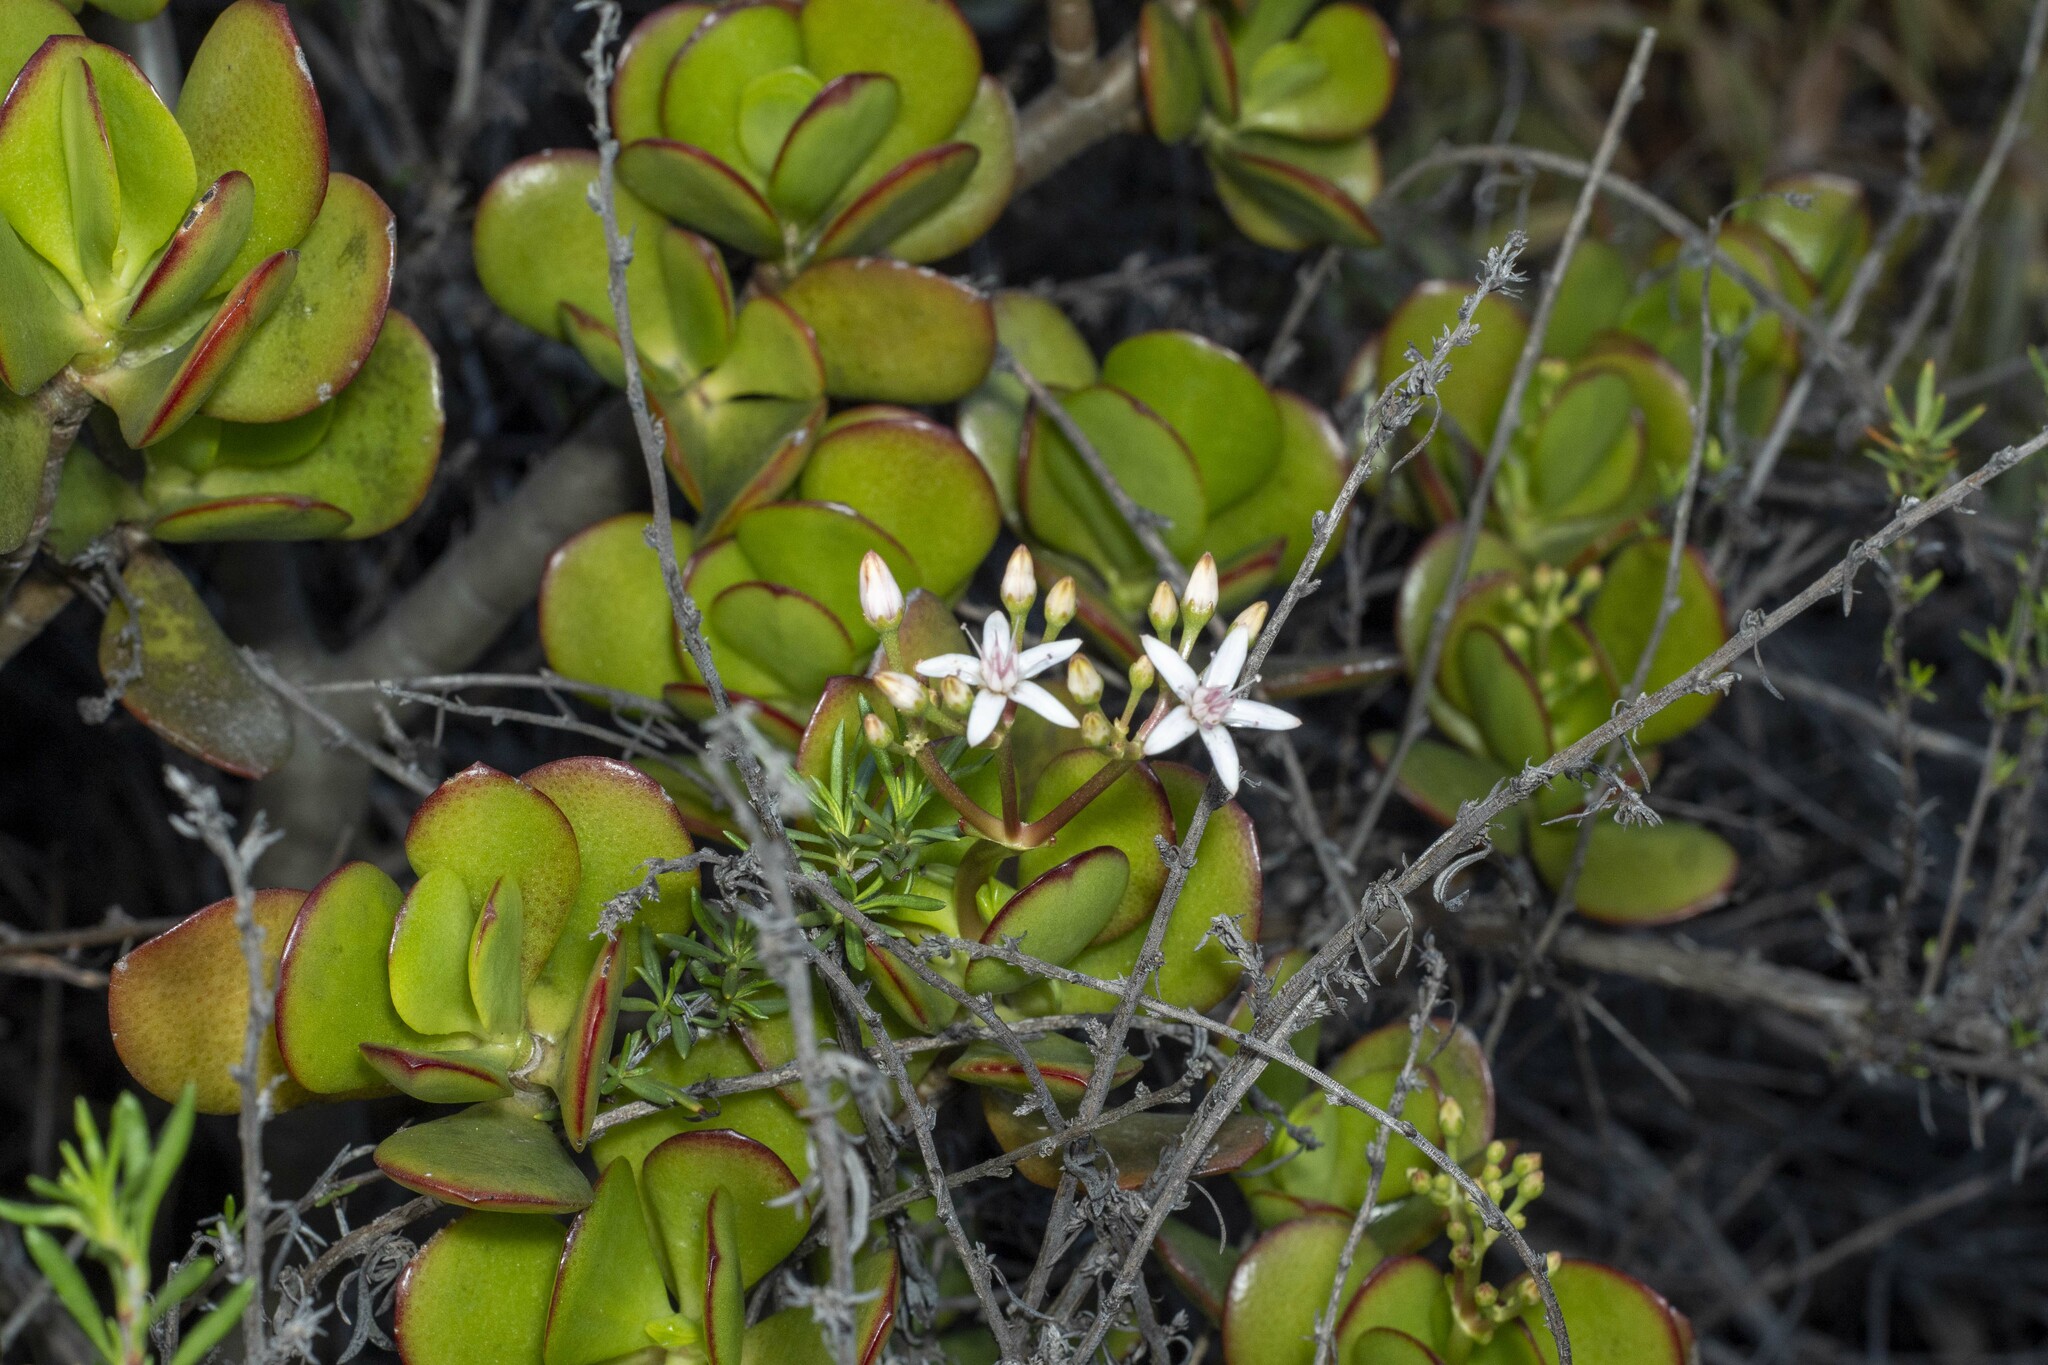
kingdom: Plantae
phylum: Tracheophyta
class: Magnoliopsida
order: Saxifragales
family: Crassulaceae
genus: Crassula
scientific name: Crassula ovata
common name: Jade plant
